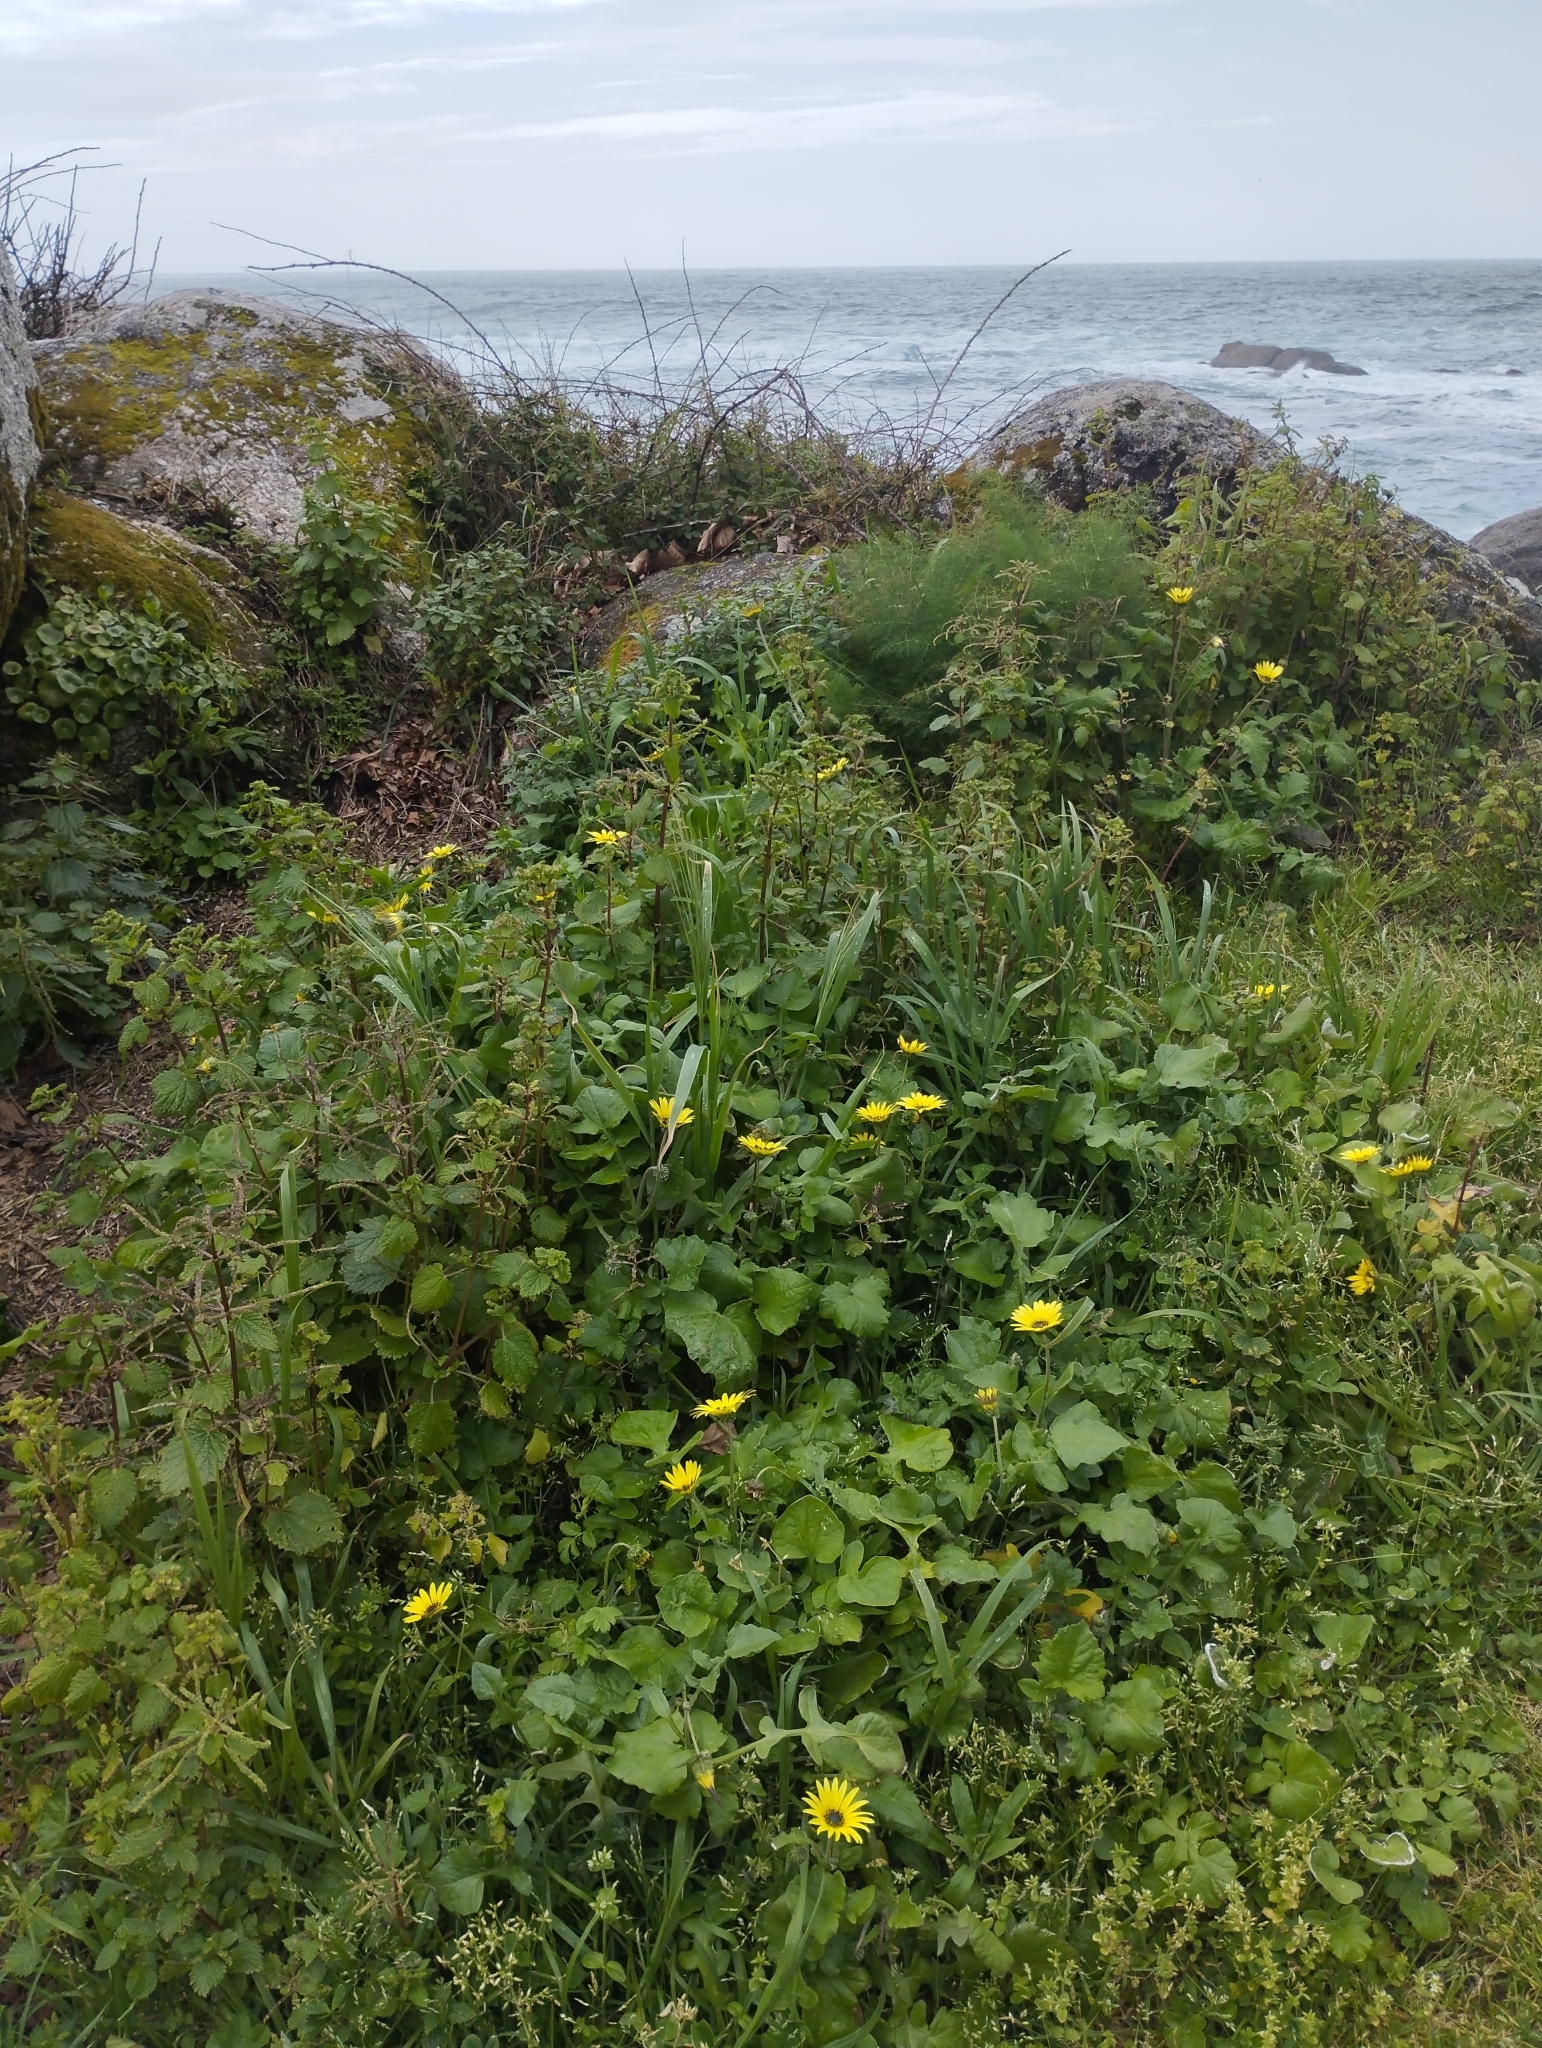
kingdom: Plantae
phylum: Tracheophyta
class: Magnoliopsida
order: Asterales
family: Asteraceae
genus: Arctotheca
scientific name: Arctotheca calendula
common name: Capeweed
